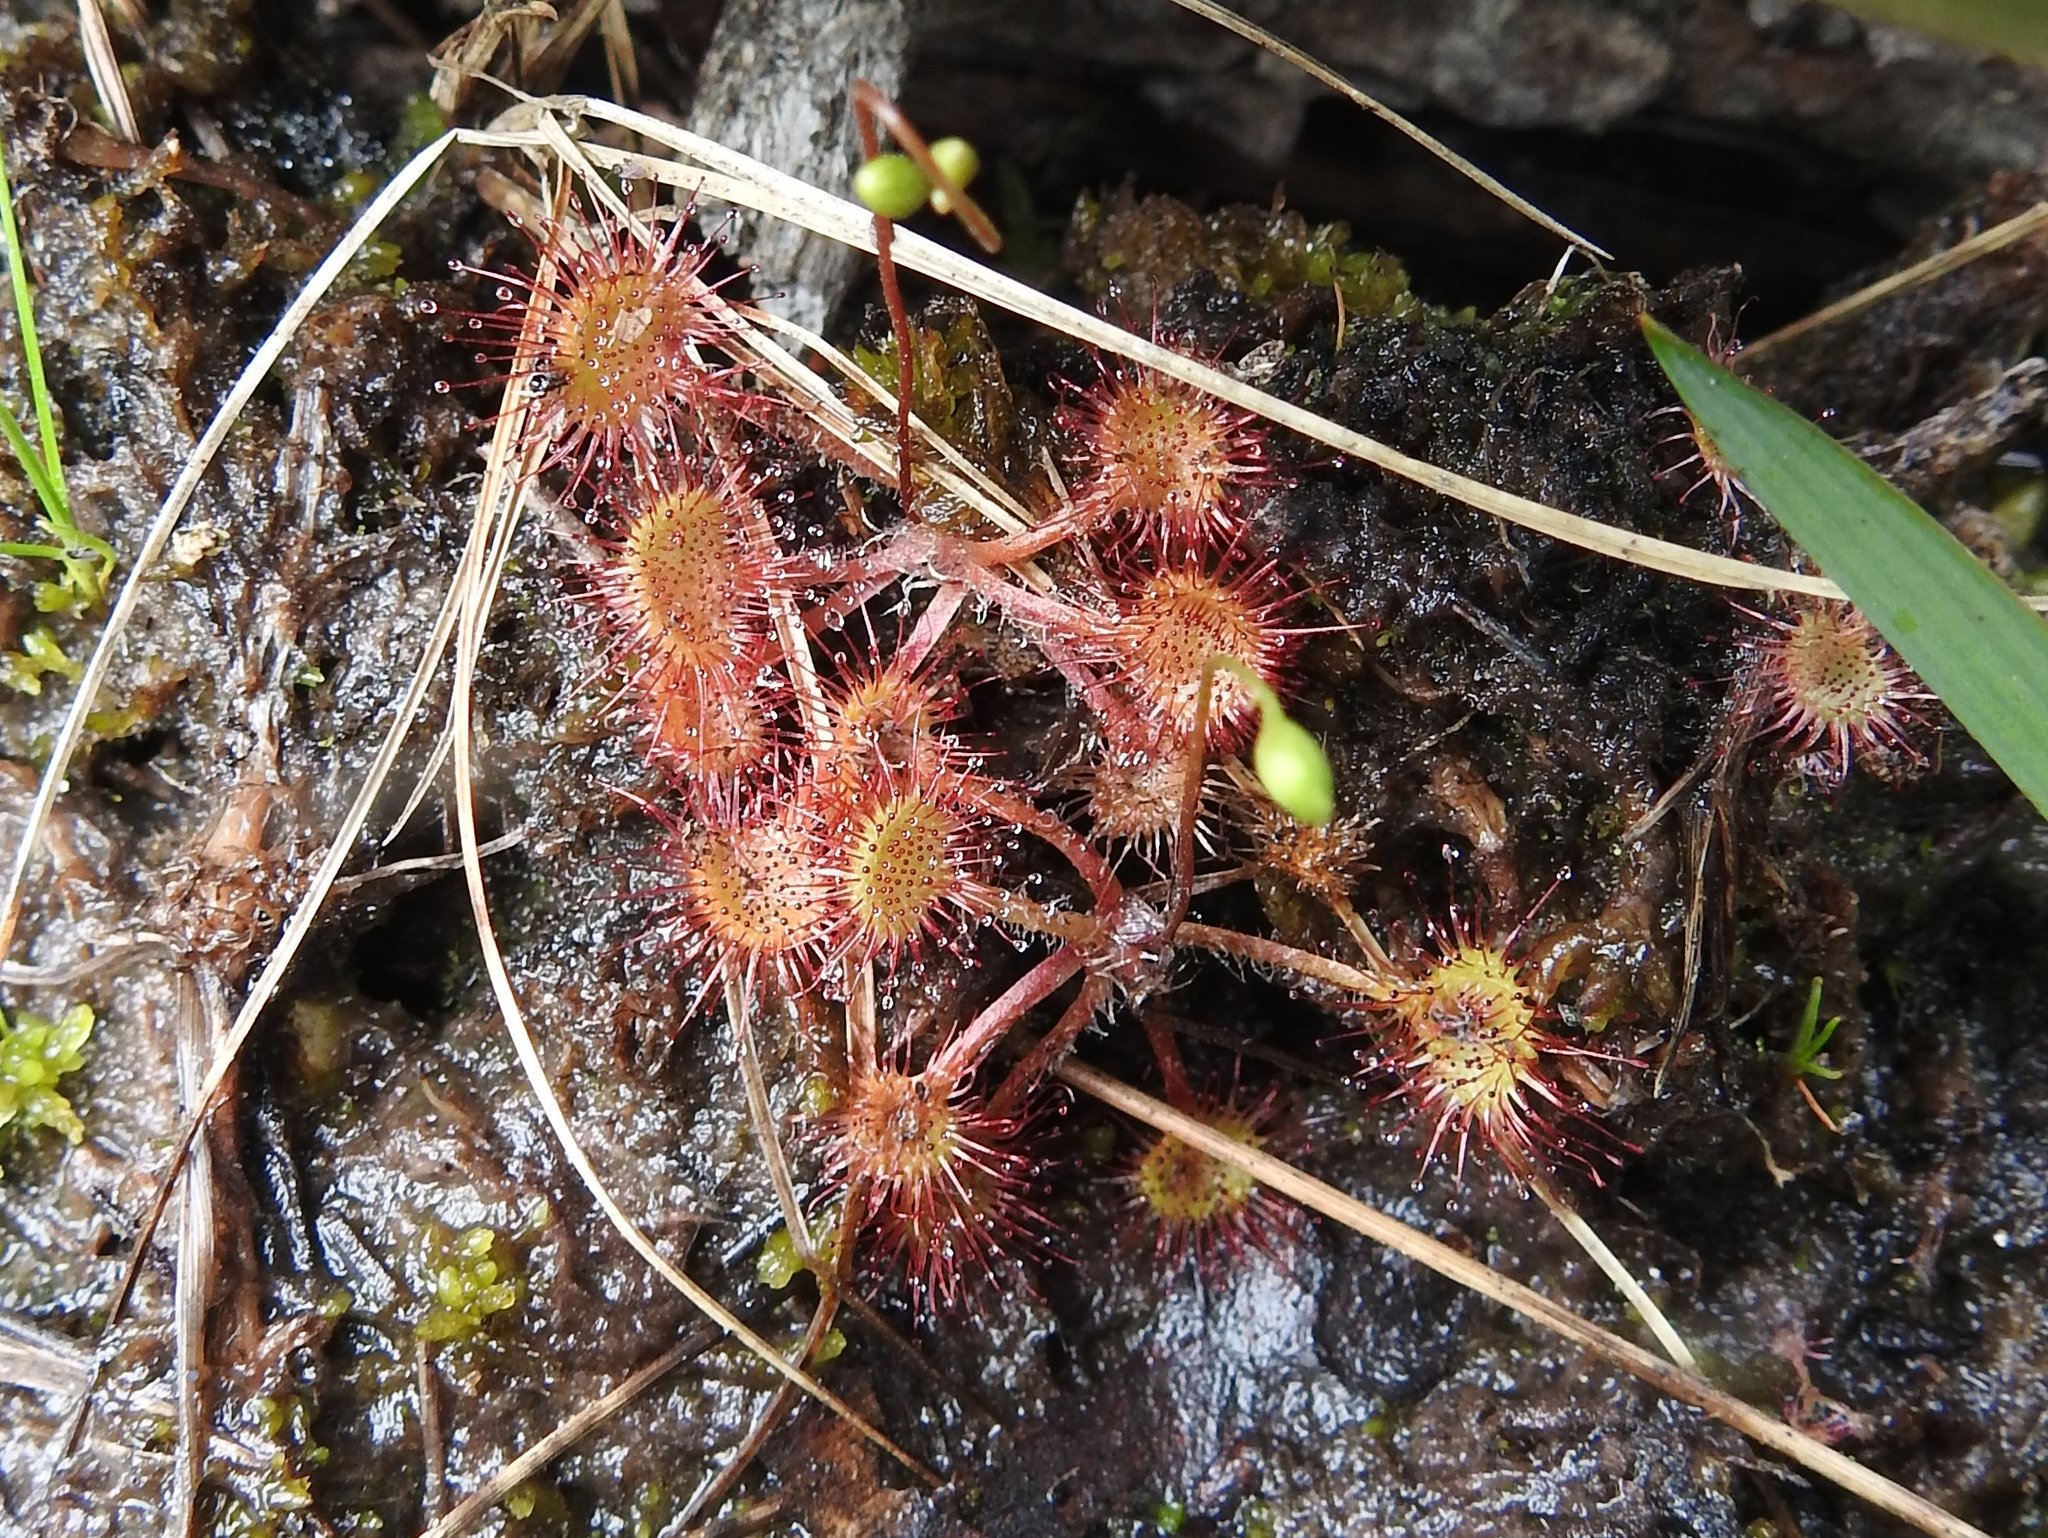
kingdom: Plantae
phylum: Tracheophyta
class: Magnoliopsida
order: Caryophyllales
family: Droseraceae
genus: Drosera
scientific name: Drosera rotundifolia
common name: Round-leaved sundew
